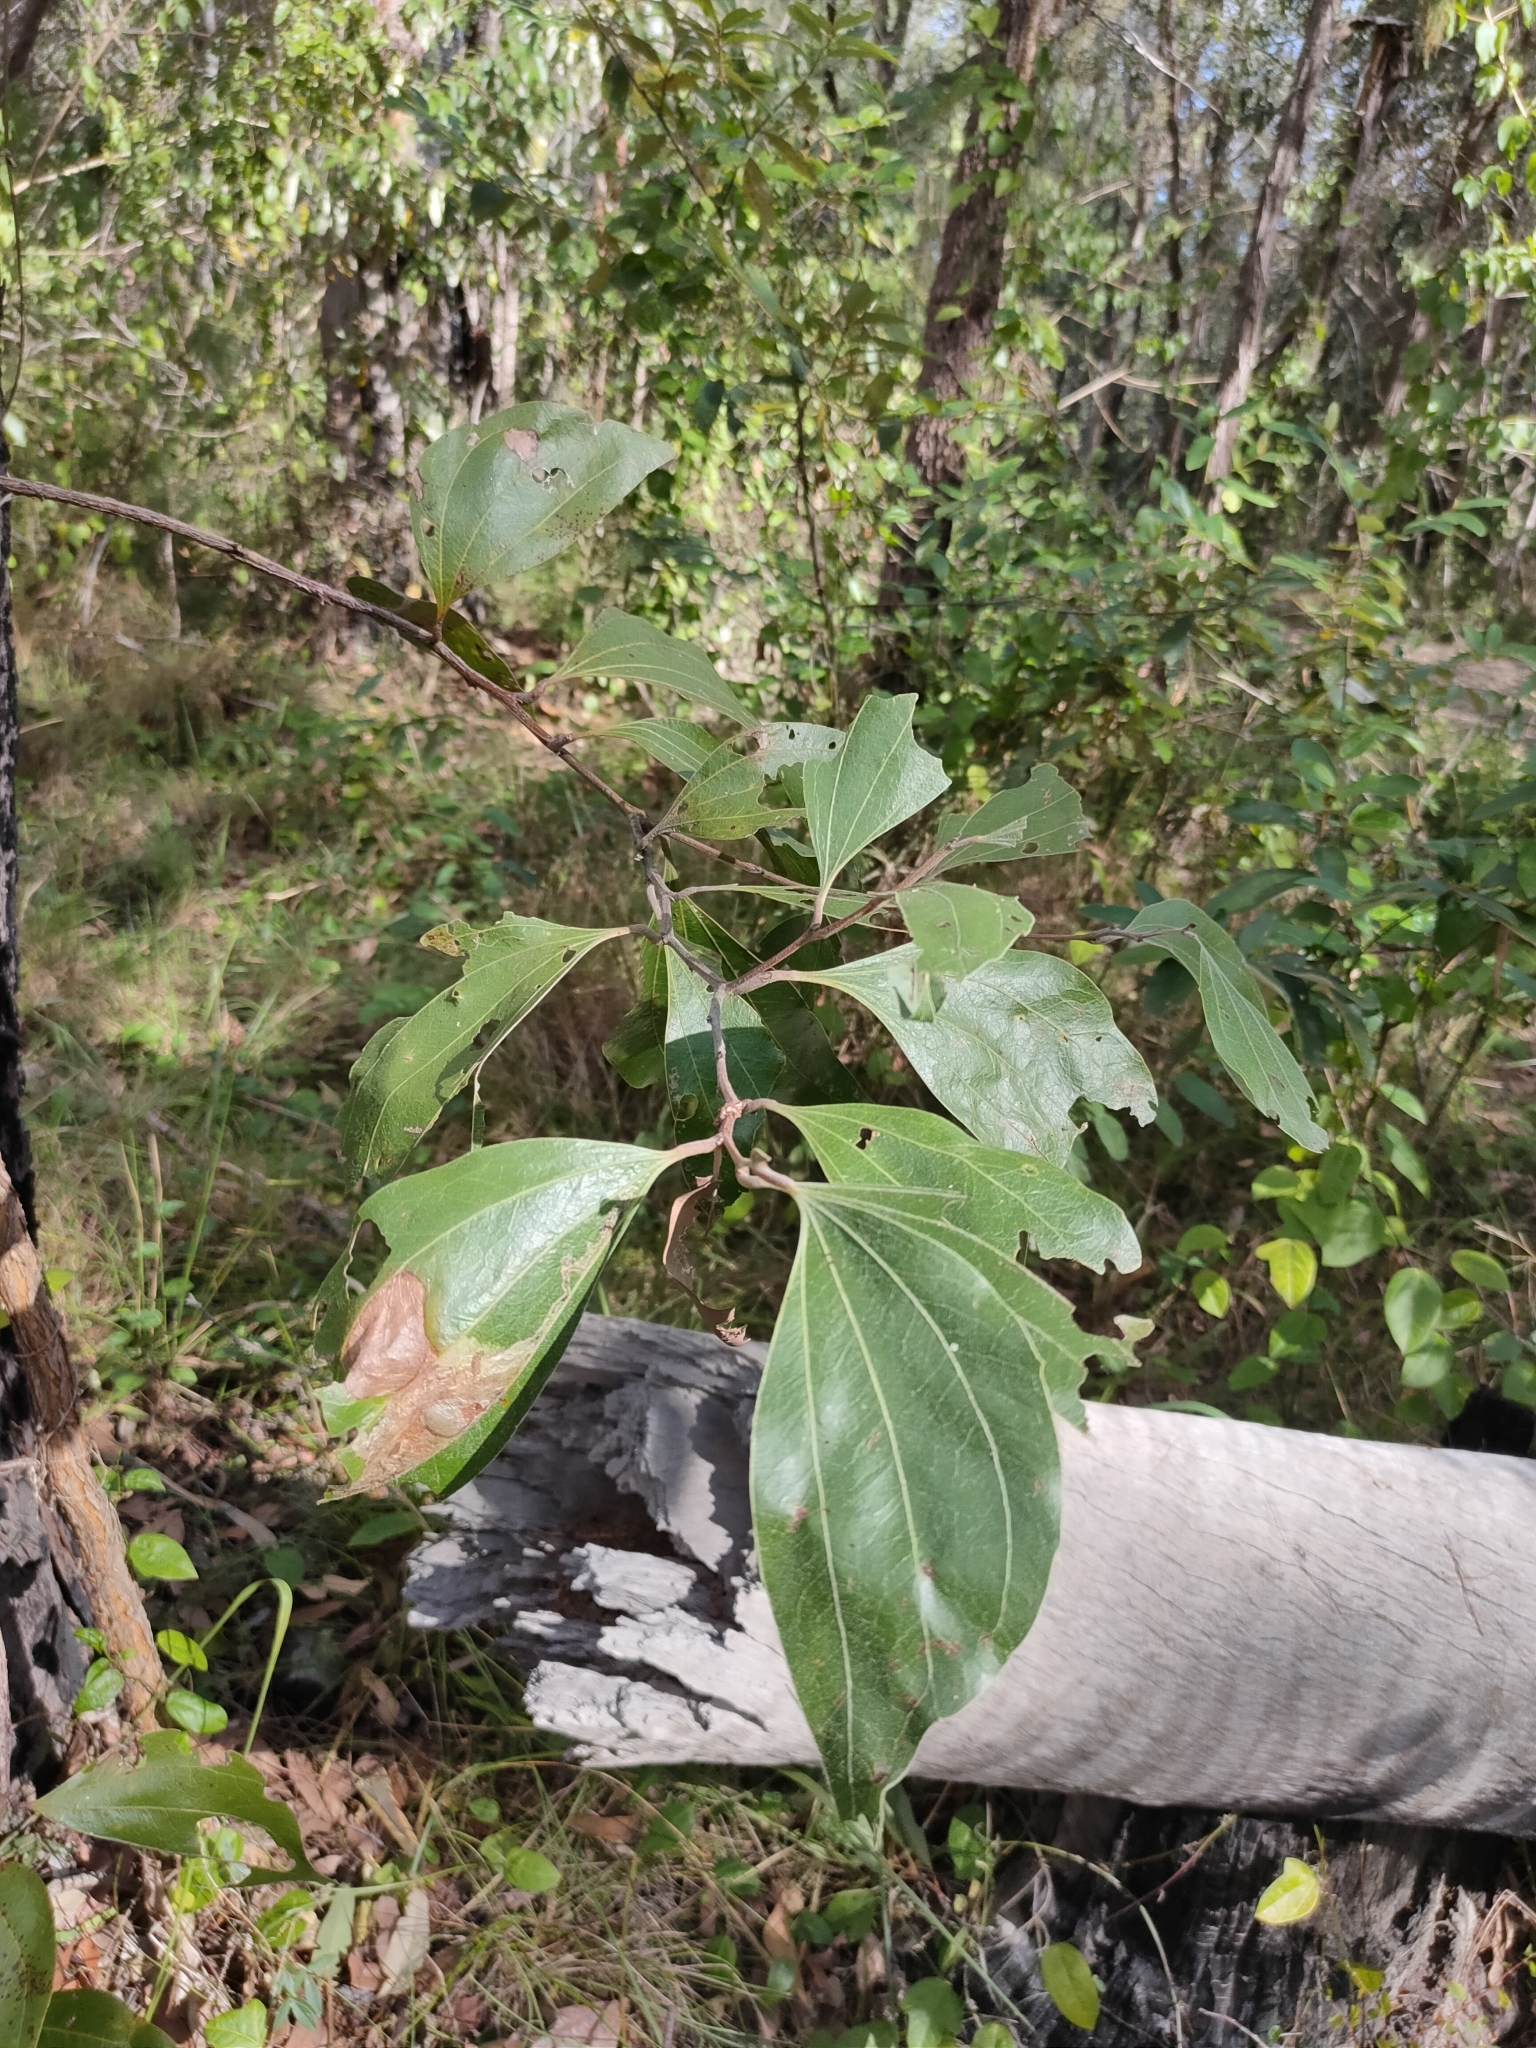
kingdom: Plantae
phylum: Tracheophyta
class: Magnoliopsida
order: Fabales
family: Fabaceae
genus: Acacia
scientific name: Acacia flavescens
